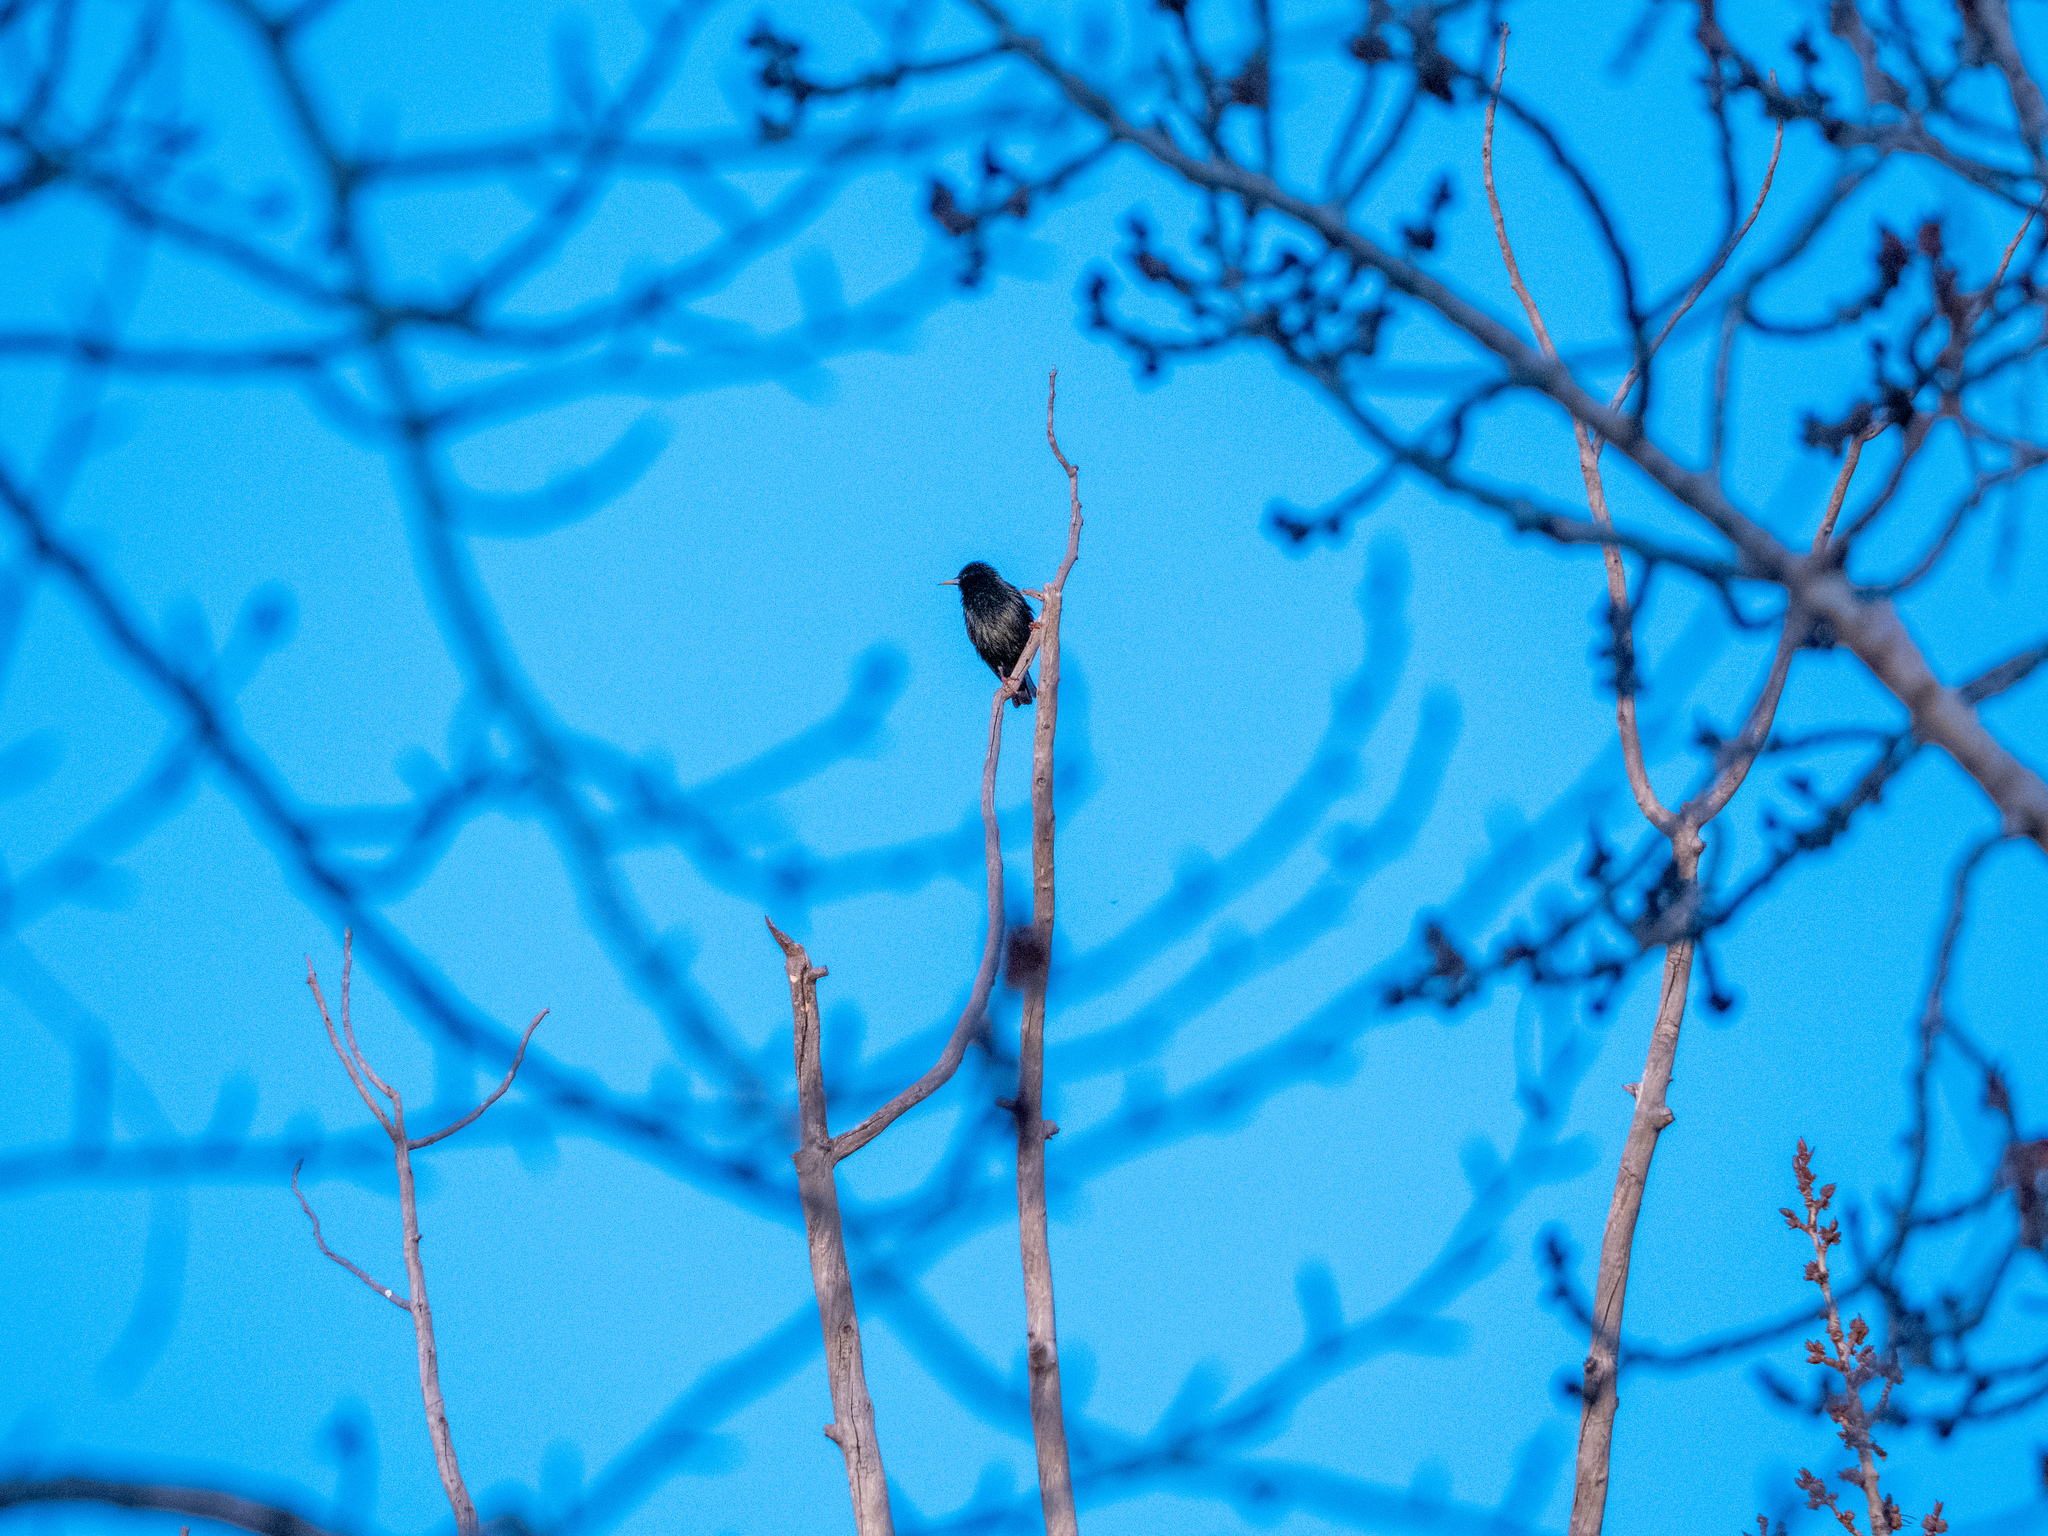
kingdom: Animalia
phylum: Chordata
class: Aves
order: Passeriformes
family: Sturnidae
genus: Sturnus
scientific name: Sturnus vulgaris
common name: Common starling
